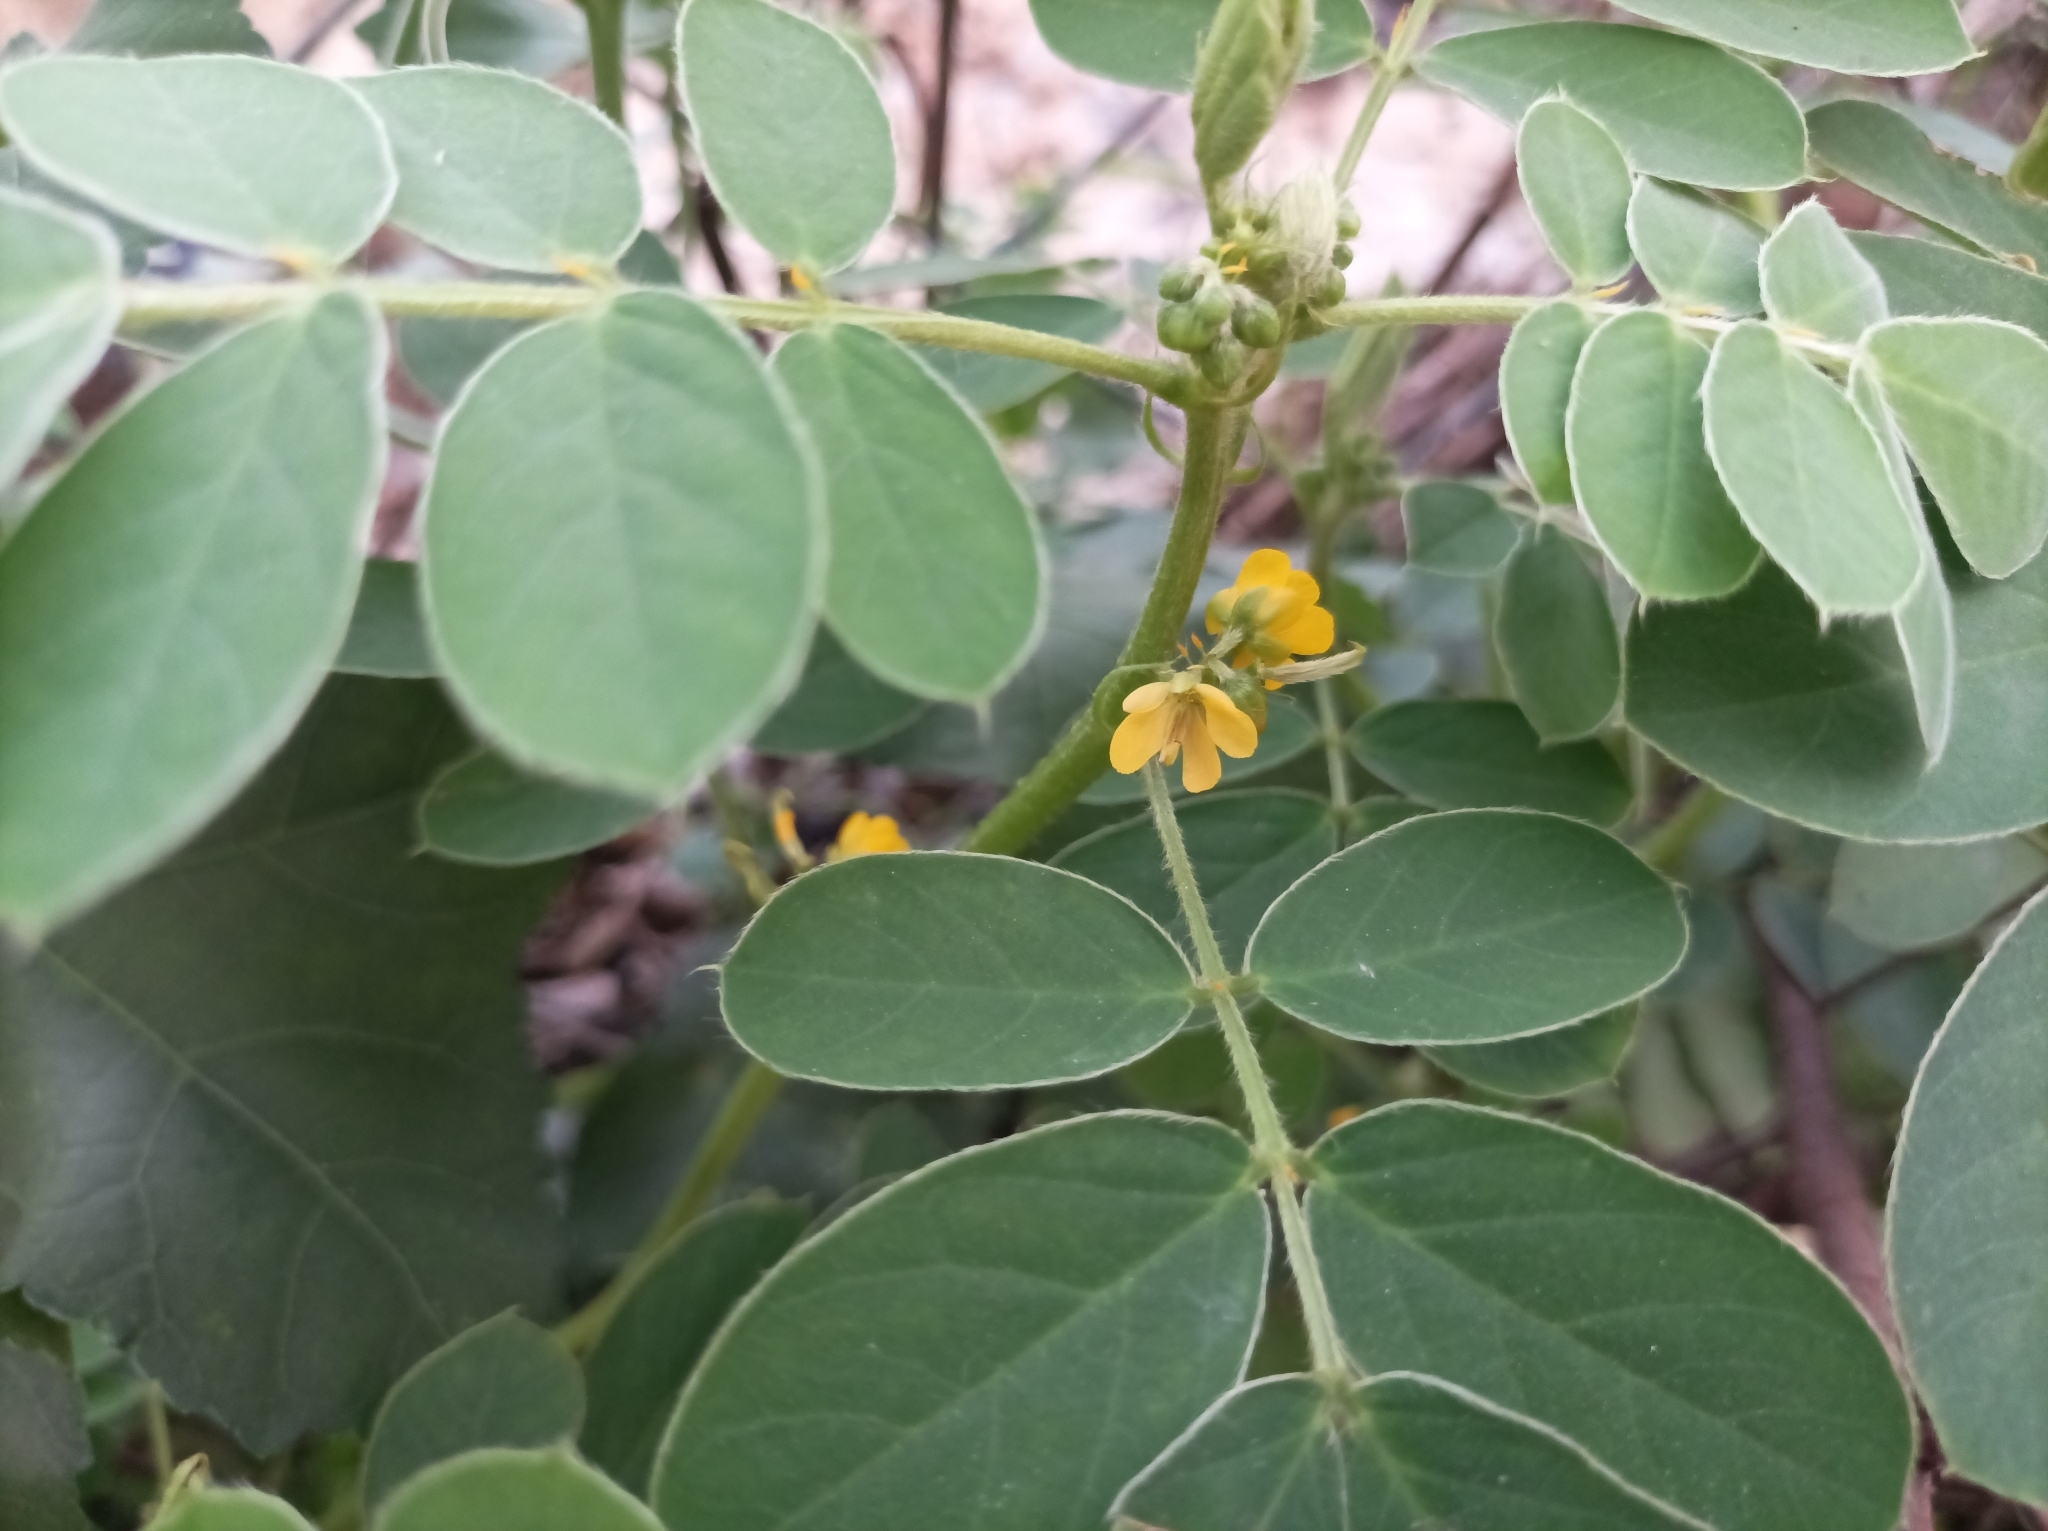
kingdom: Plantae
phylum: Tracheophyta
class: Magnoliopsida
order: Fabales
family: Fabaceae
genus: Senna
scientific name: Senna uniflora
